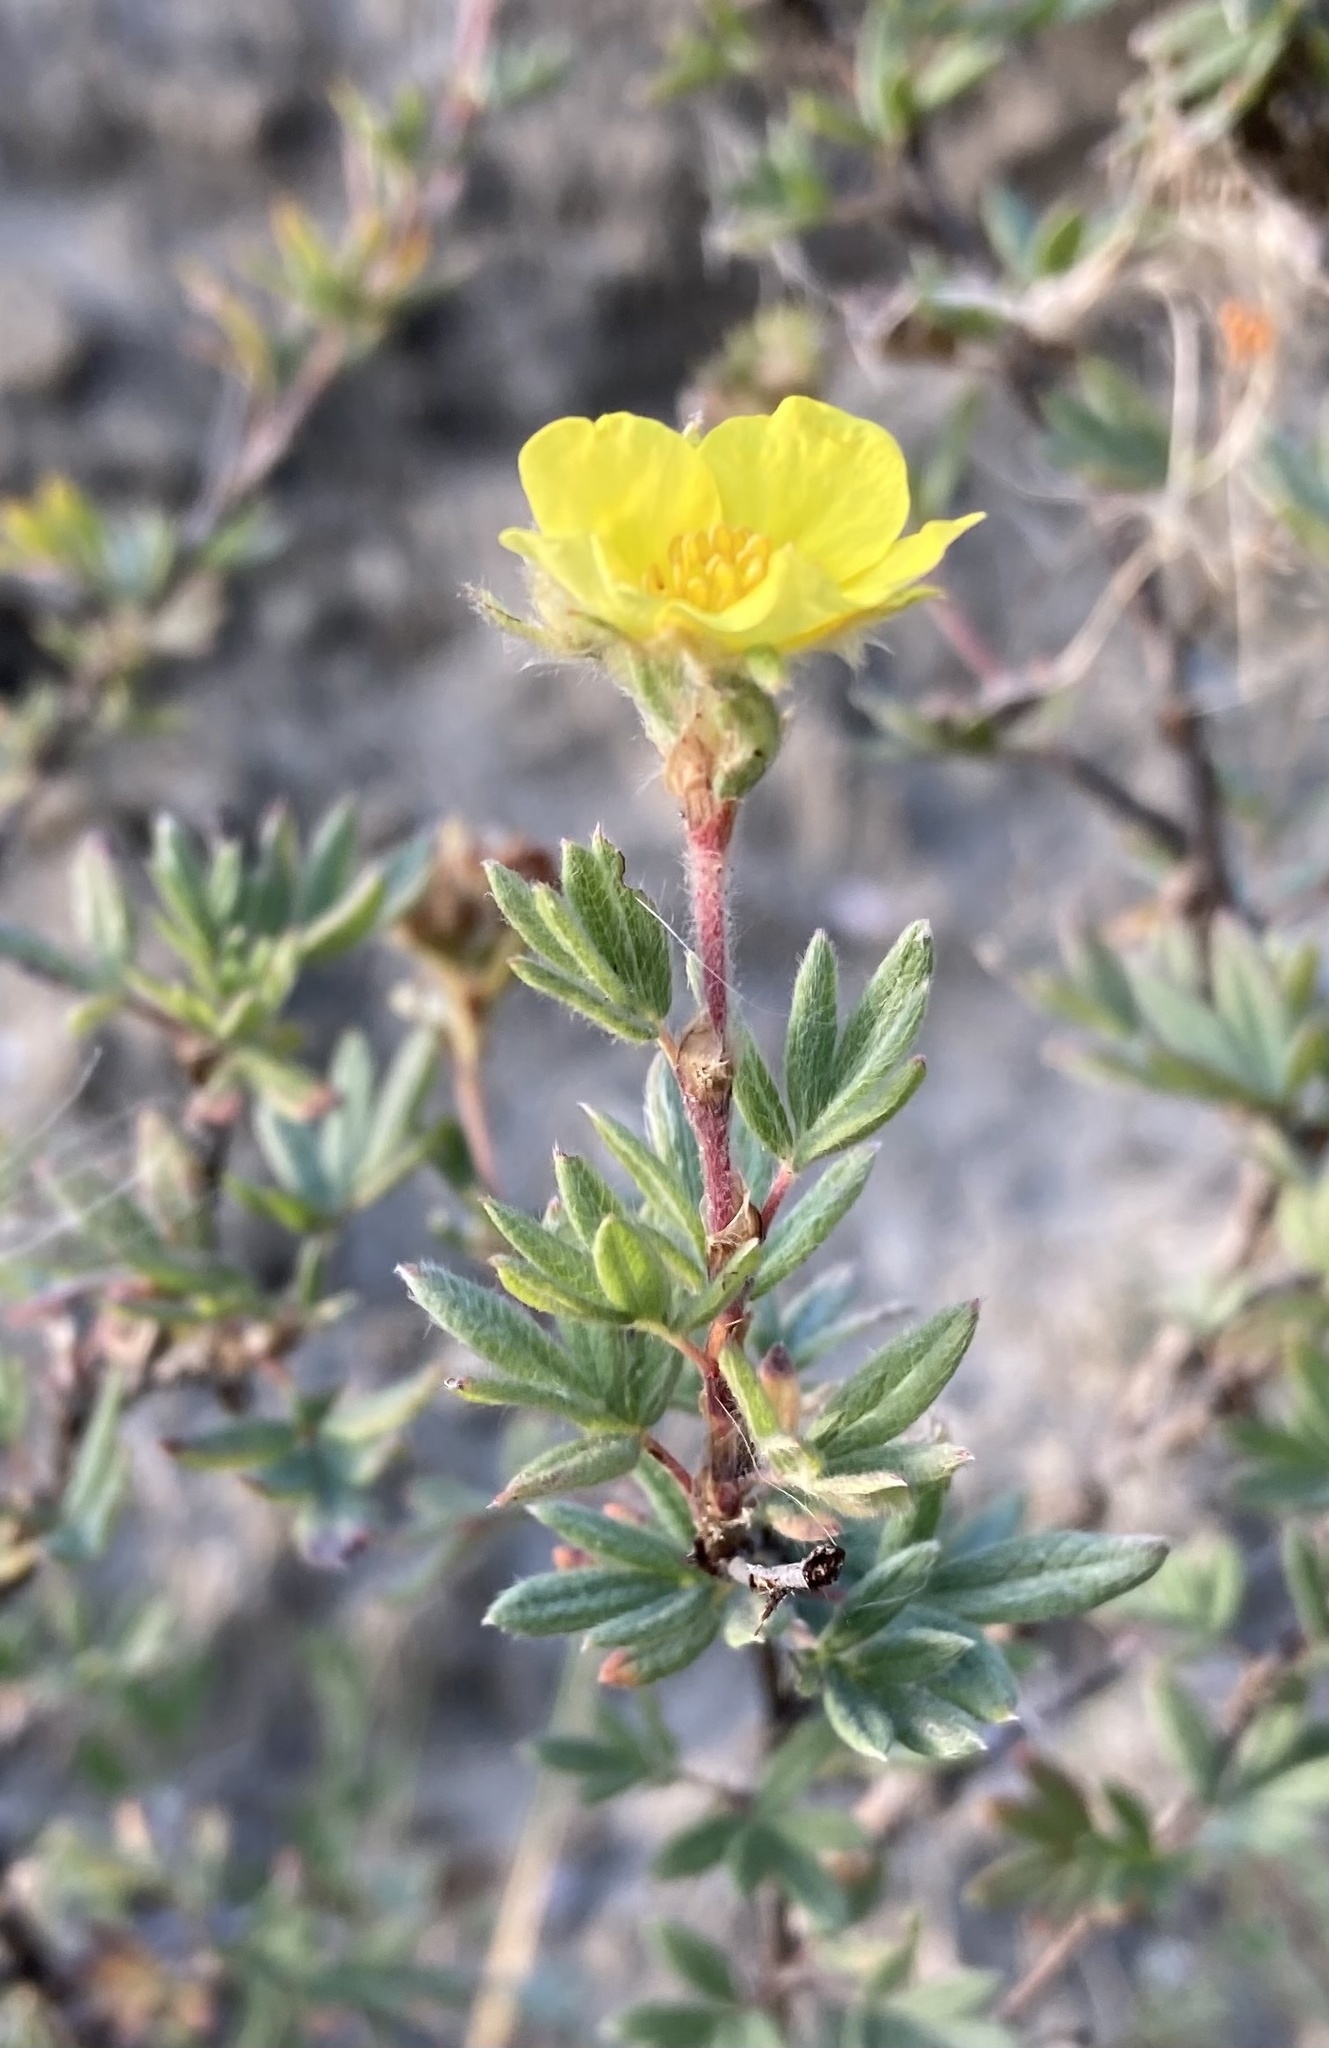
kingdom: Plantae
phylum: Tracheophyta
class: Magnoliopsida
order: Rosales
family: Rosaceae
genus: Dasiphora
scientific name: Dasiphora fruticosa
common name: Shrubby cinquefoil
